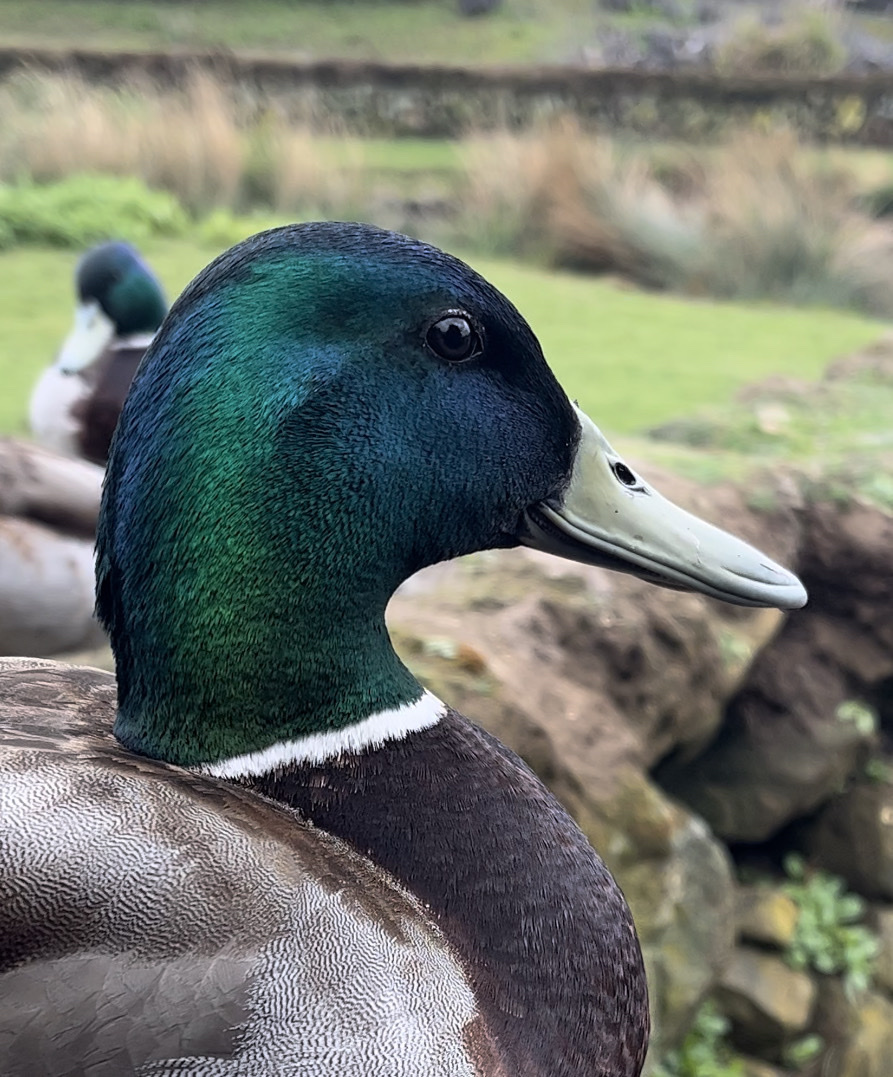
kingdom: Animalia
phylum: Chordata
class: Aves
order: Anseriformes
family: Anatidae
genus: Anas
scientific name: Anas platyrhynchos
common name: Mallard
